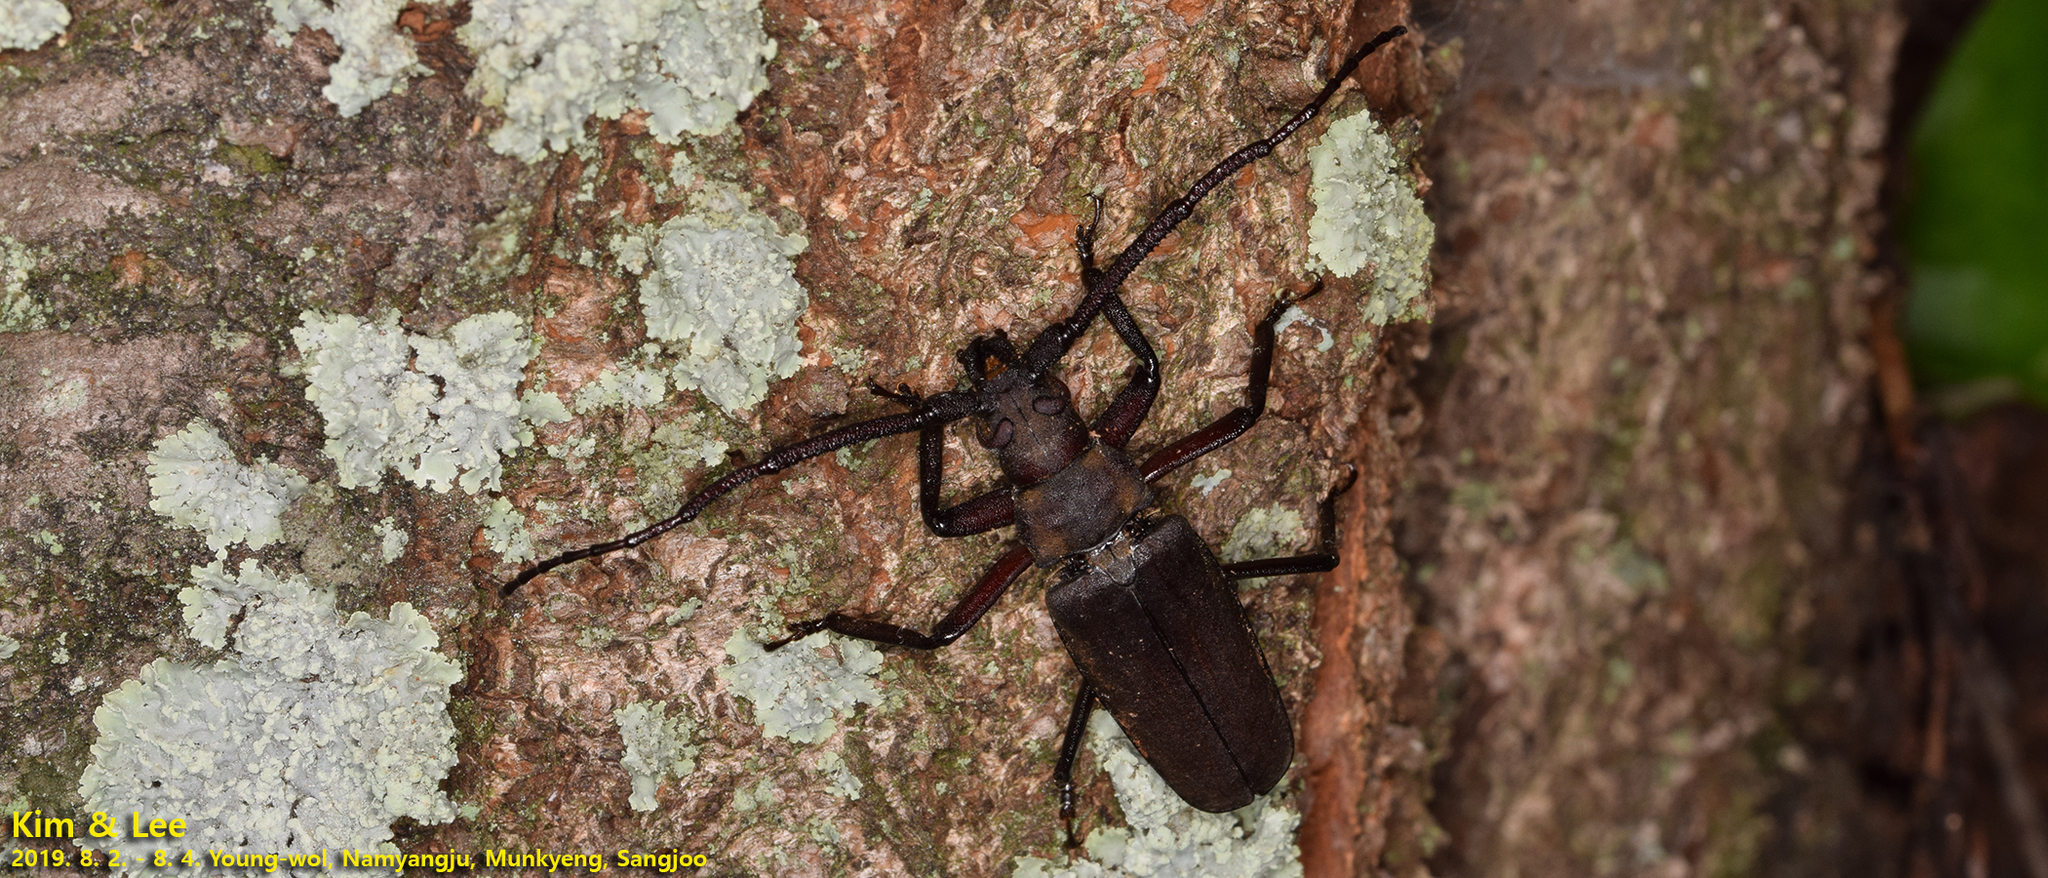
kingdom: Animalia
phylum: Arthropoda
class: Insecta
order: Coleoptera
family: Cerambycidae
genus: Aegosoma
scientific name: Aegosoma sinicum
